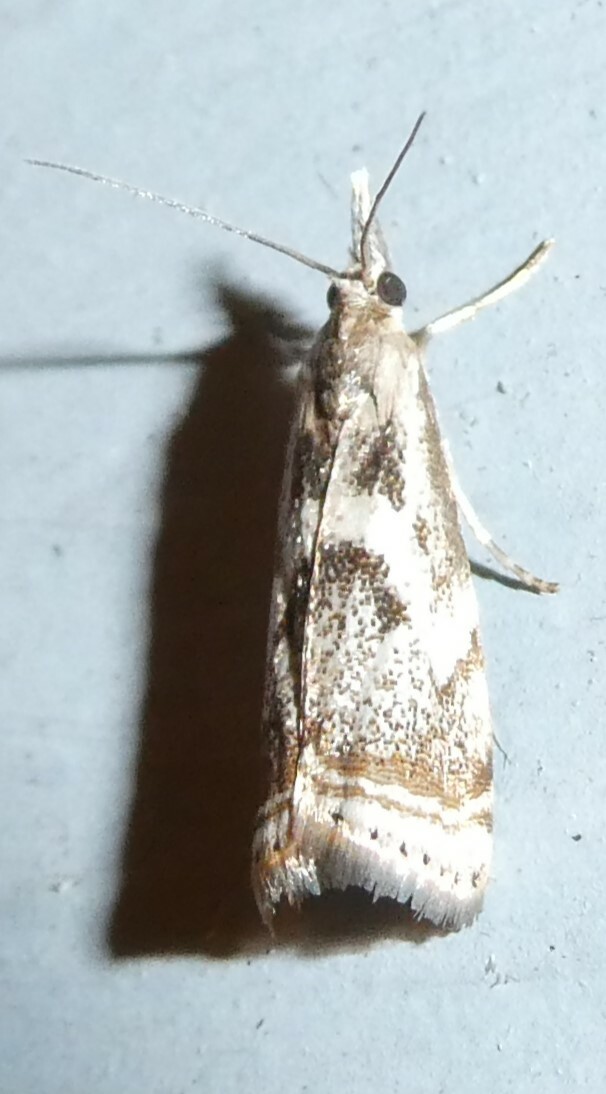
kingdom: Animalia
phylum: Arthropoda
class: Insecta
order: Lepidoptera
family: Crambidae
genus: Microcrambus
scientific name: Microcrambus elegans
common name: Elegant grass-veneer
